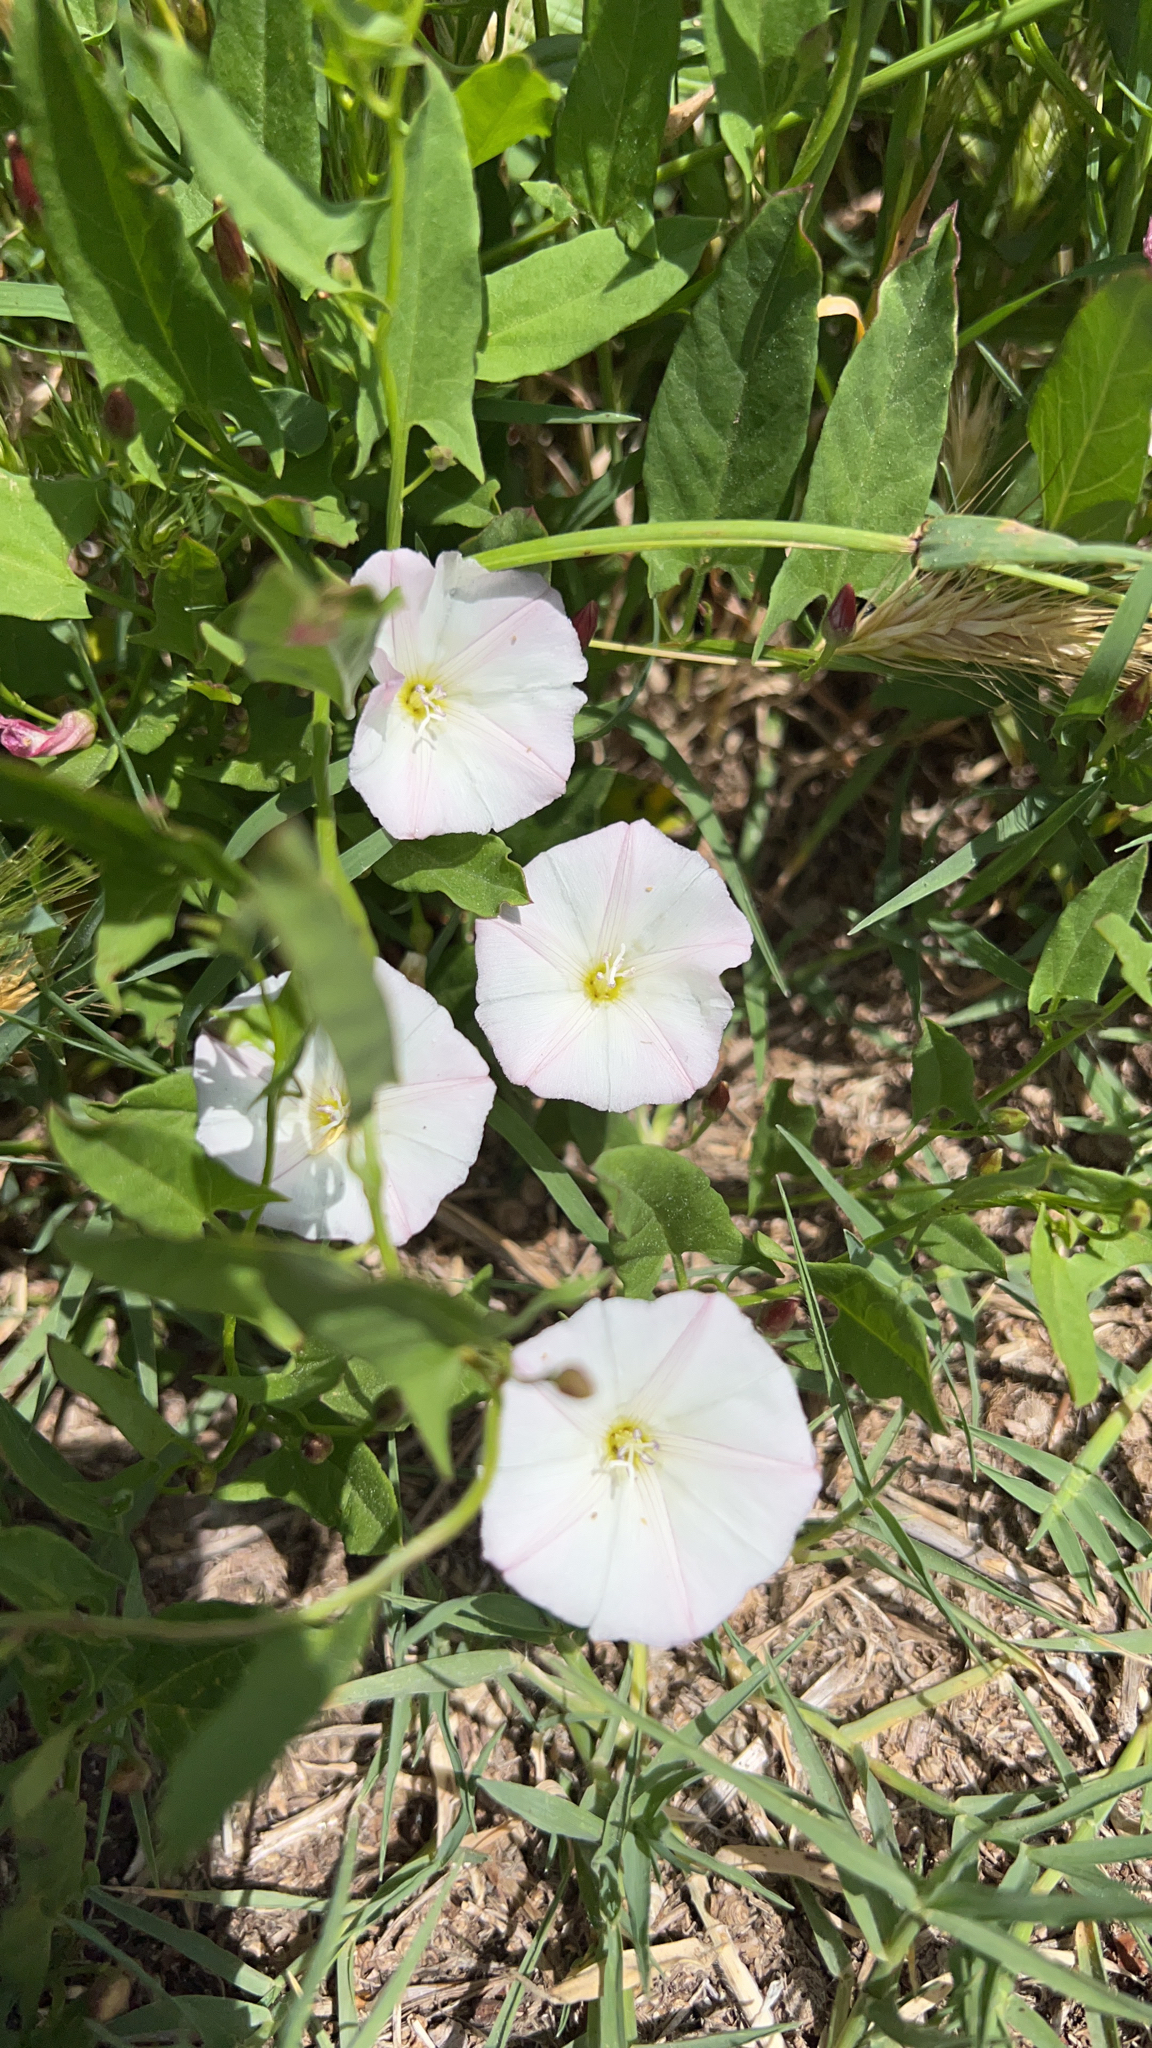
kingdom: Plantae
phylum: Tracheophyta
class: Magnoliopsida
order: Solanales
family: Convolvulaceae
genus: Convolvulus
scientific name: Convolvulus arvensis
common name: Field bindweed
